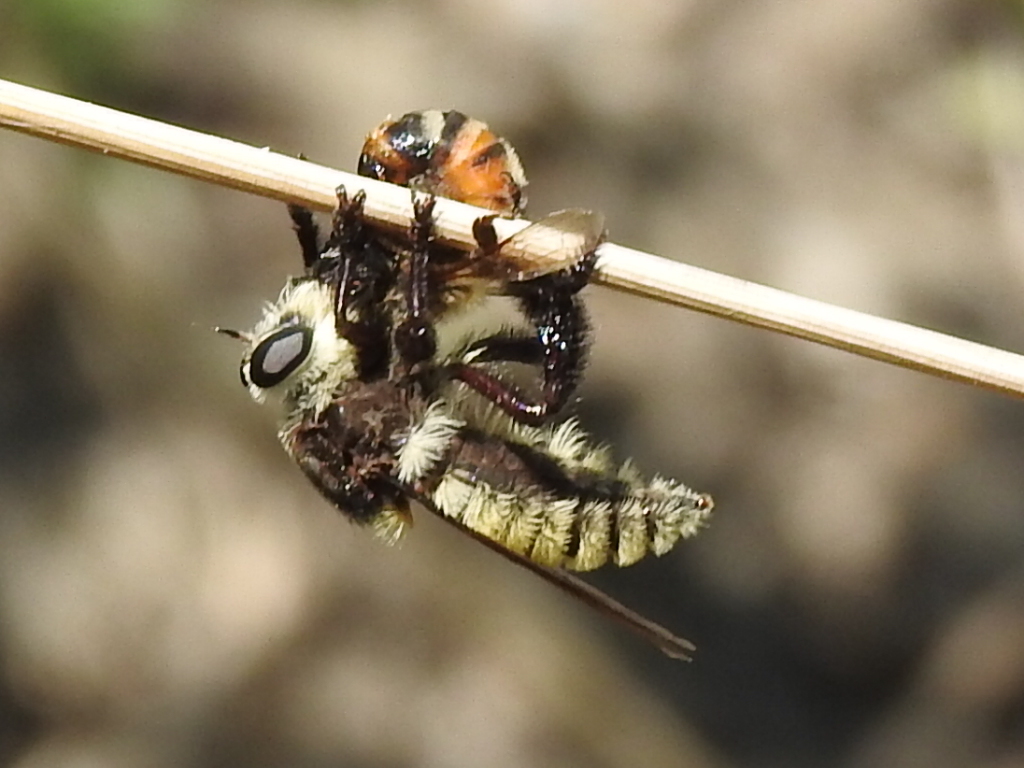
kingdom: Animalia
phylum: Arthropoda
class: Insecta
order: Diptera
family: Asilidae
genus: Mallophora
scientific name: Mallophora fautrix
